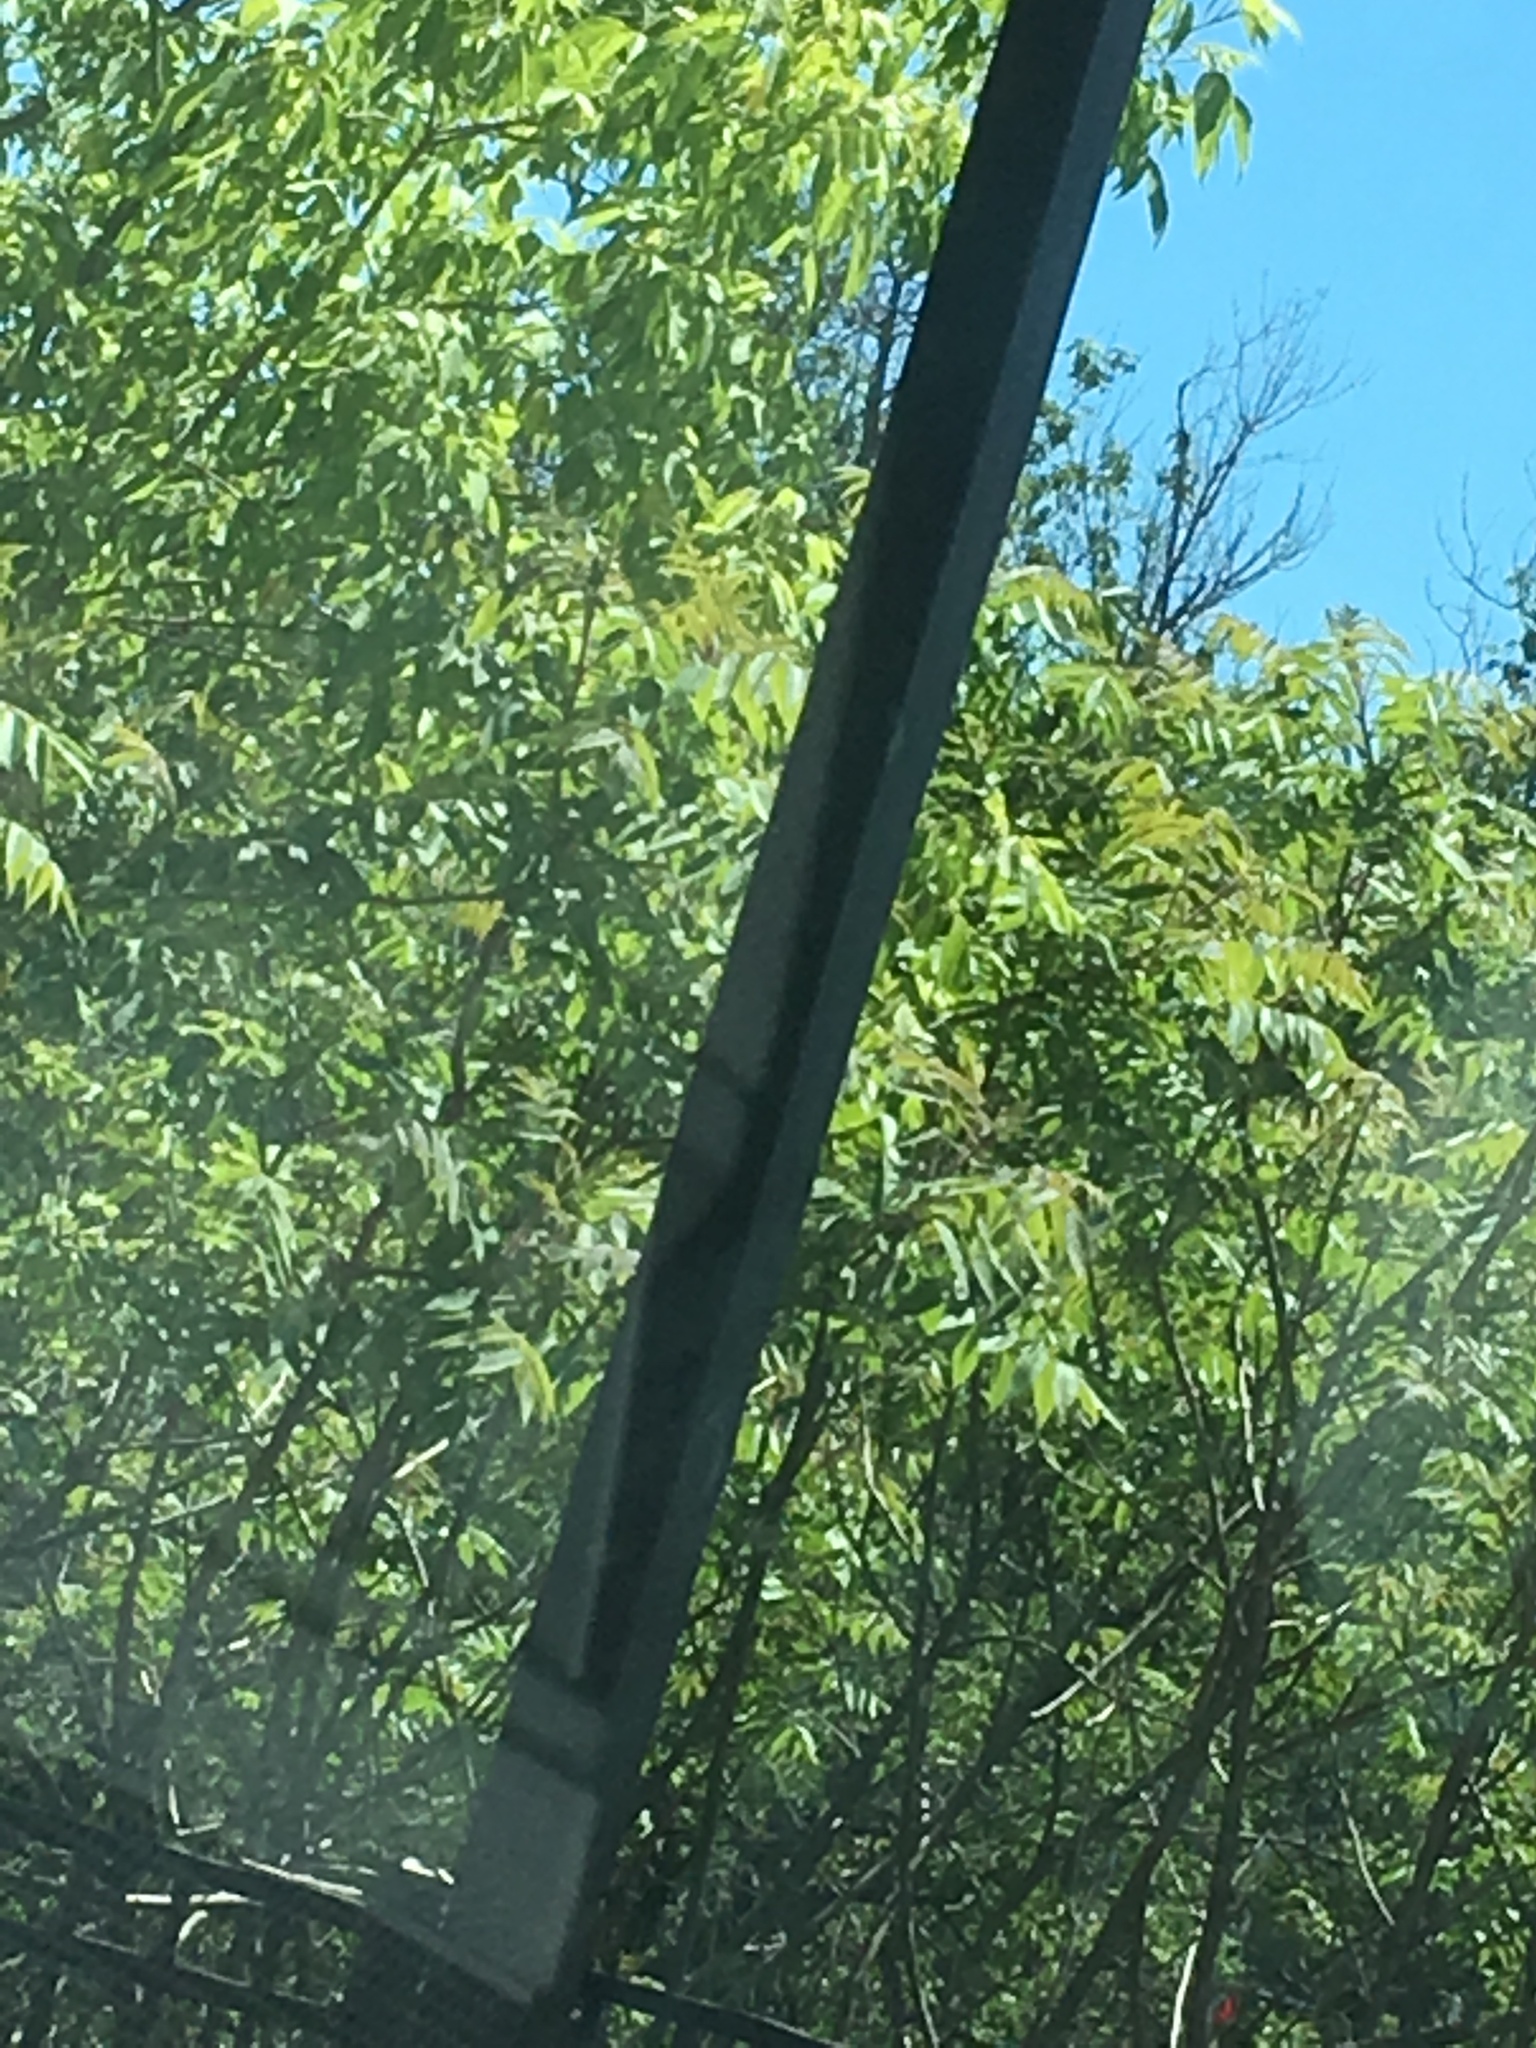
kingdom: Plantae
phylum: Tracheophyta
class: Magnoliopsida
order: Sapindales
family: Anacardiaceae
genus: Rhus
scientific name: Rhus typhina
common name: Staghorn sumac
